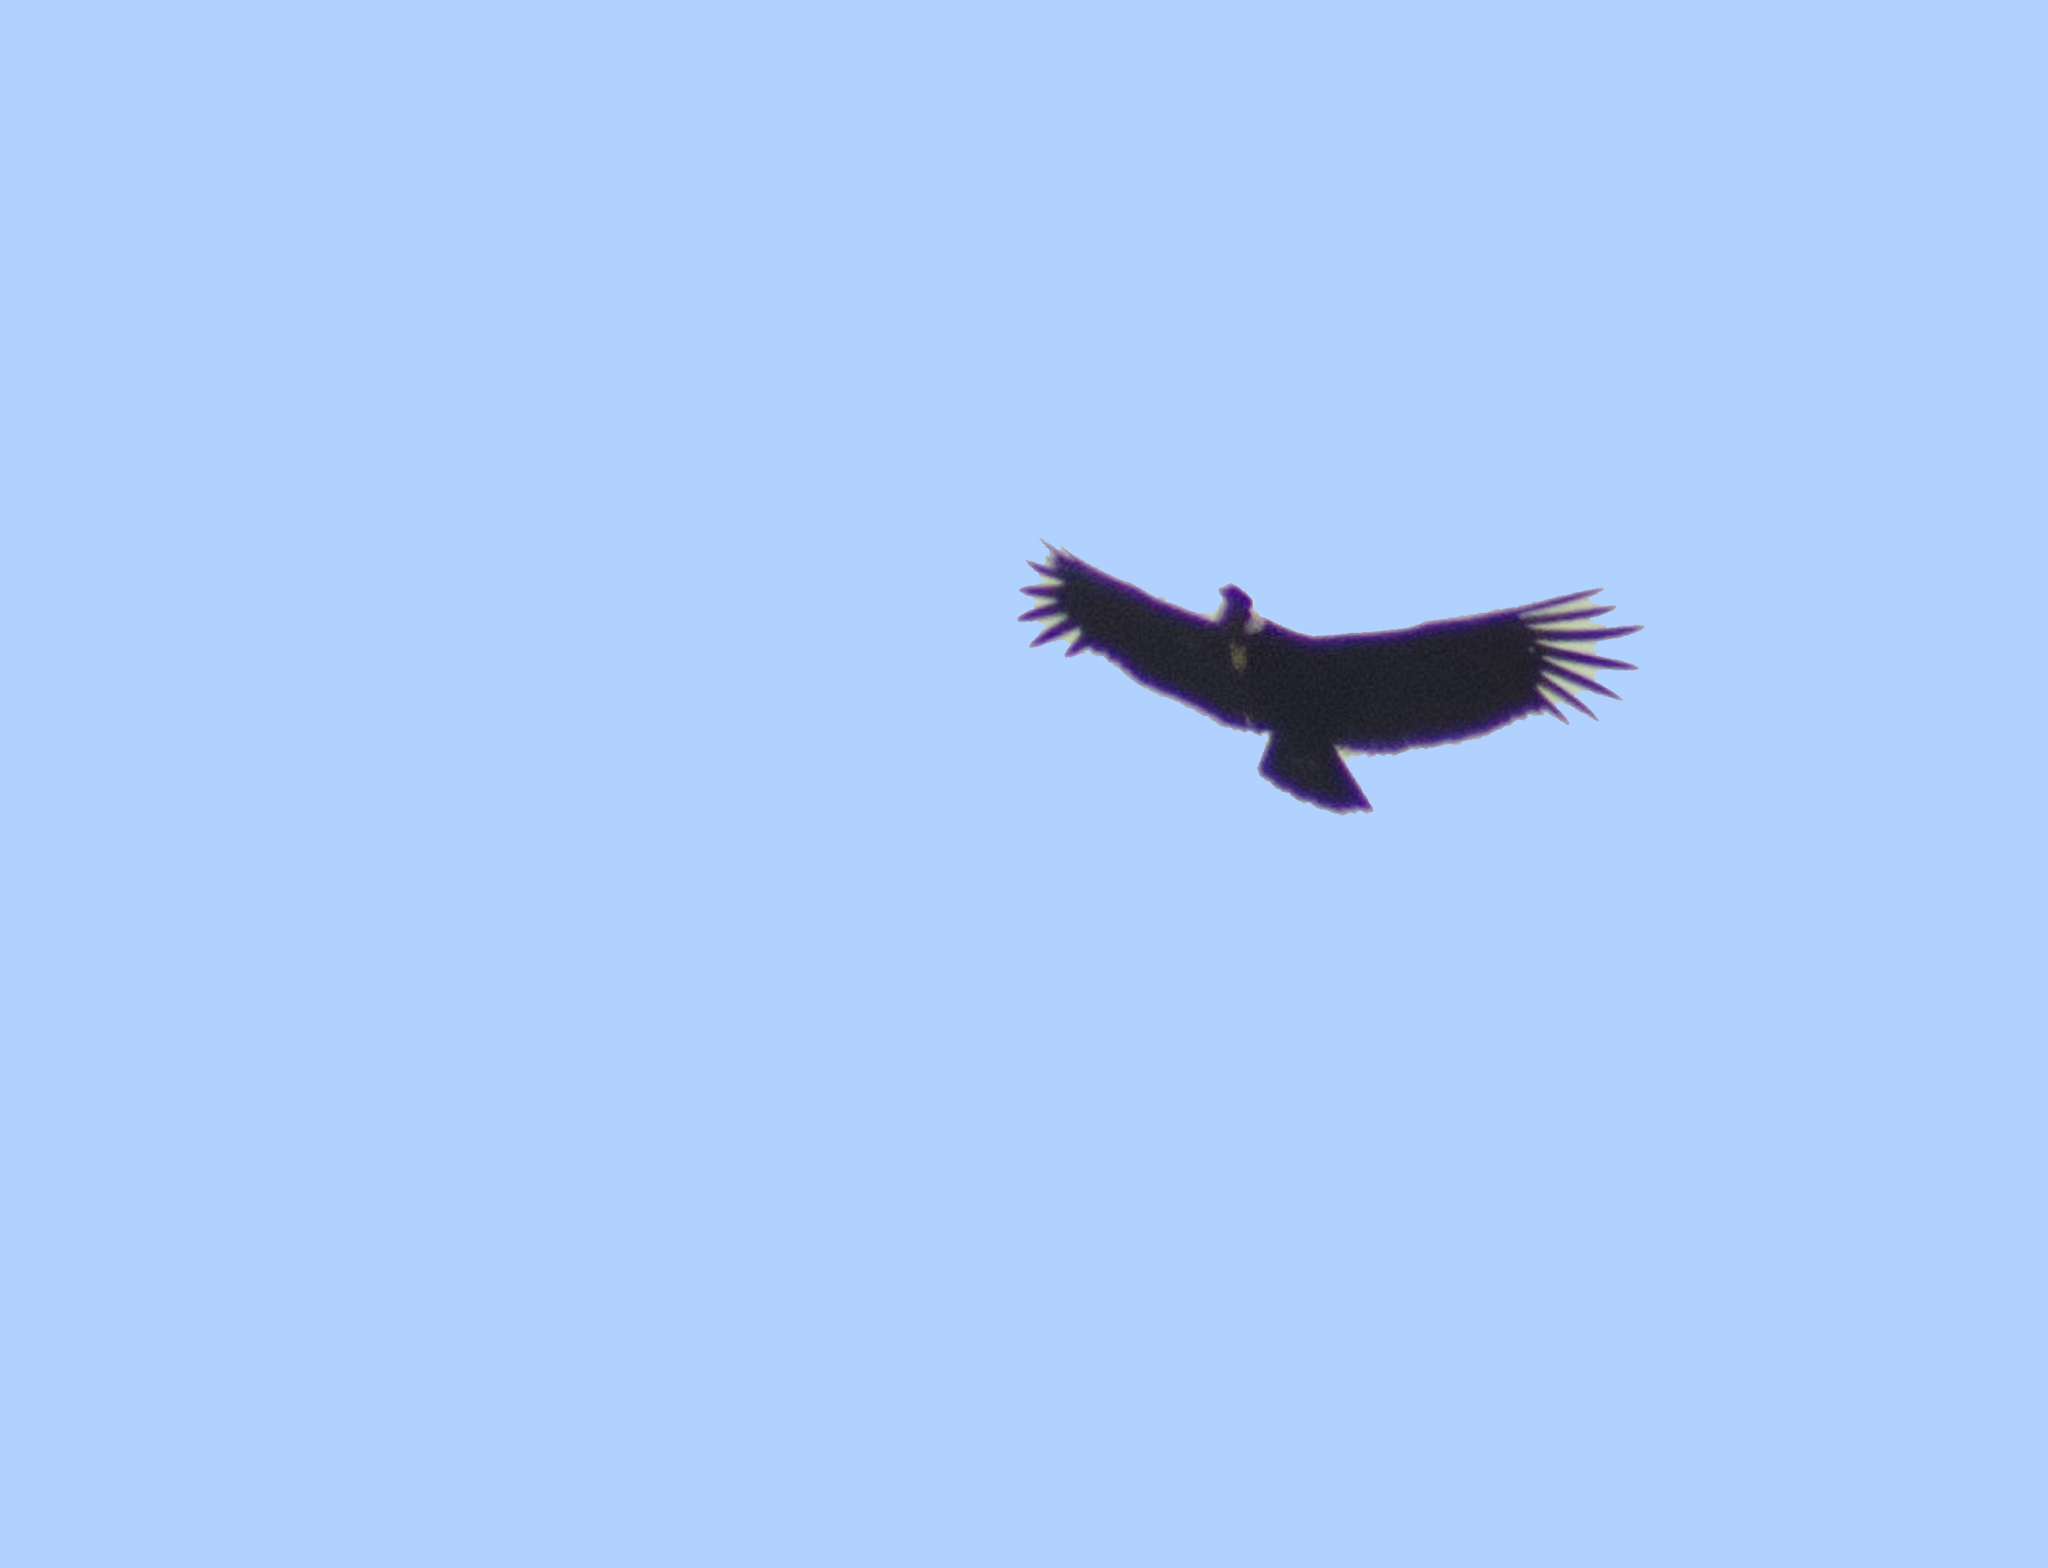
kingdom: Animalia
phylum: Chordata
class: Aves
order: Accipitriformes
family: Cathartidae
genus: Vultur
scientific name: Vultur gryphus
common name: Andean condor
